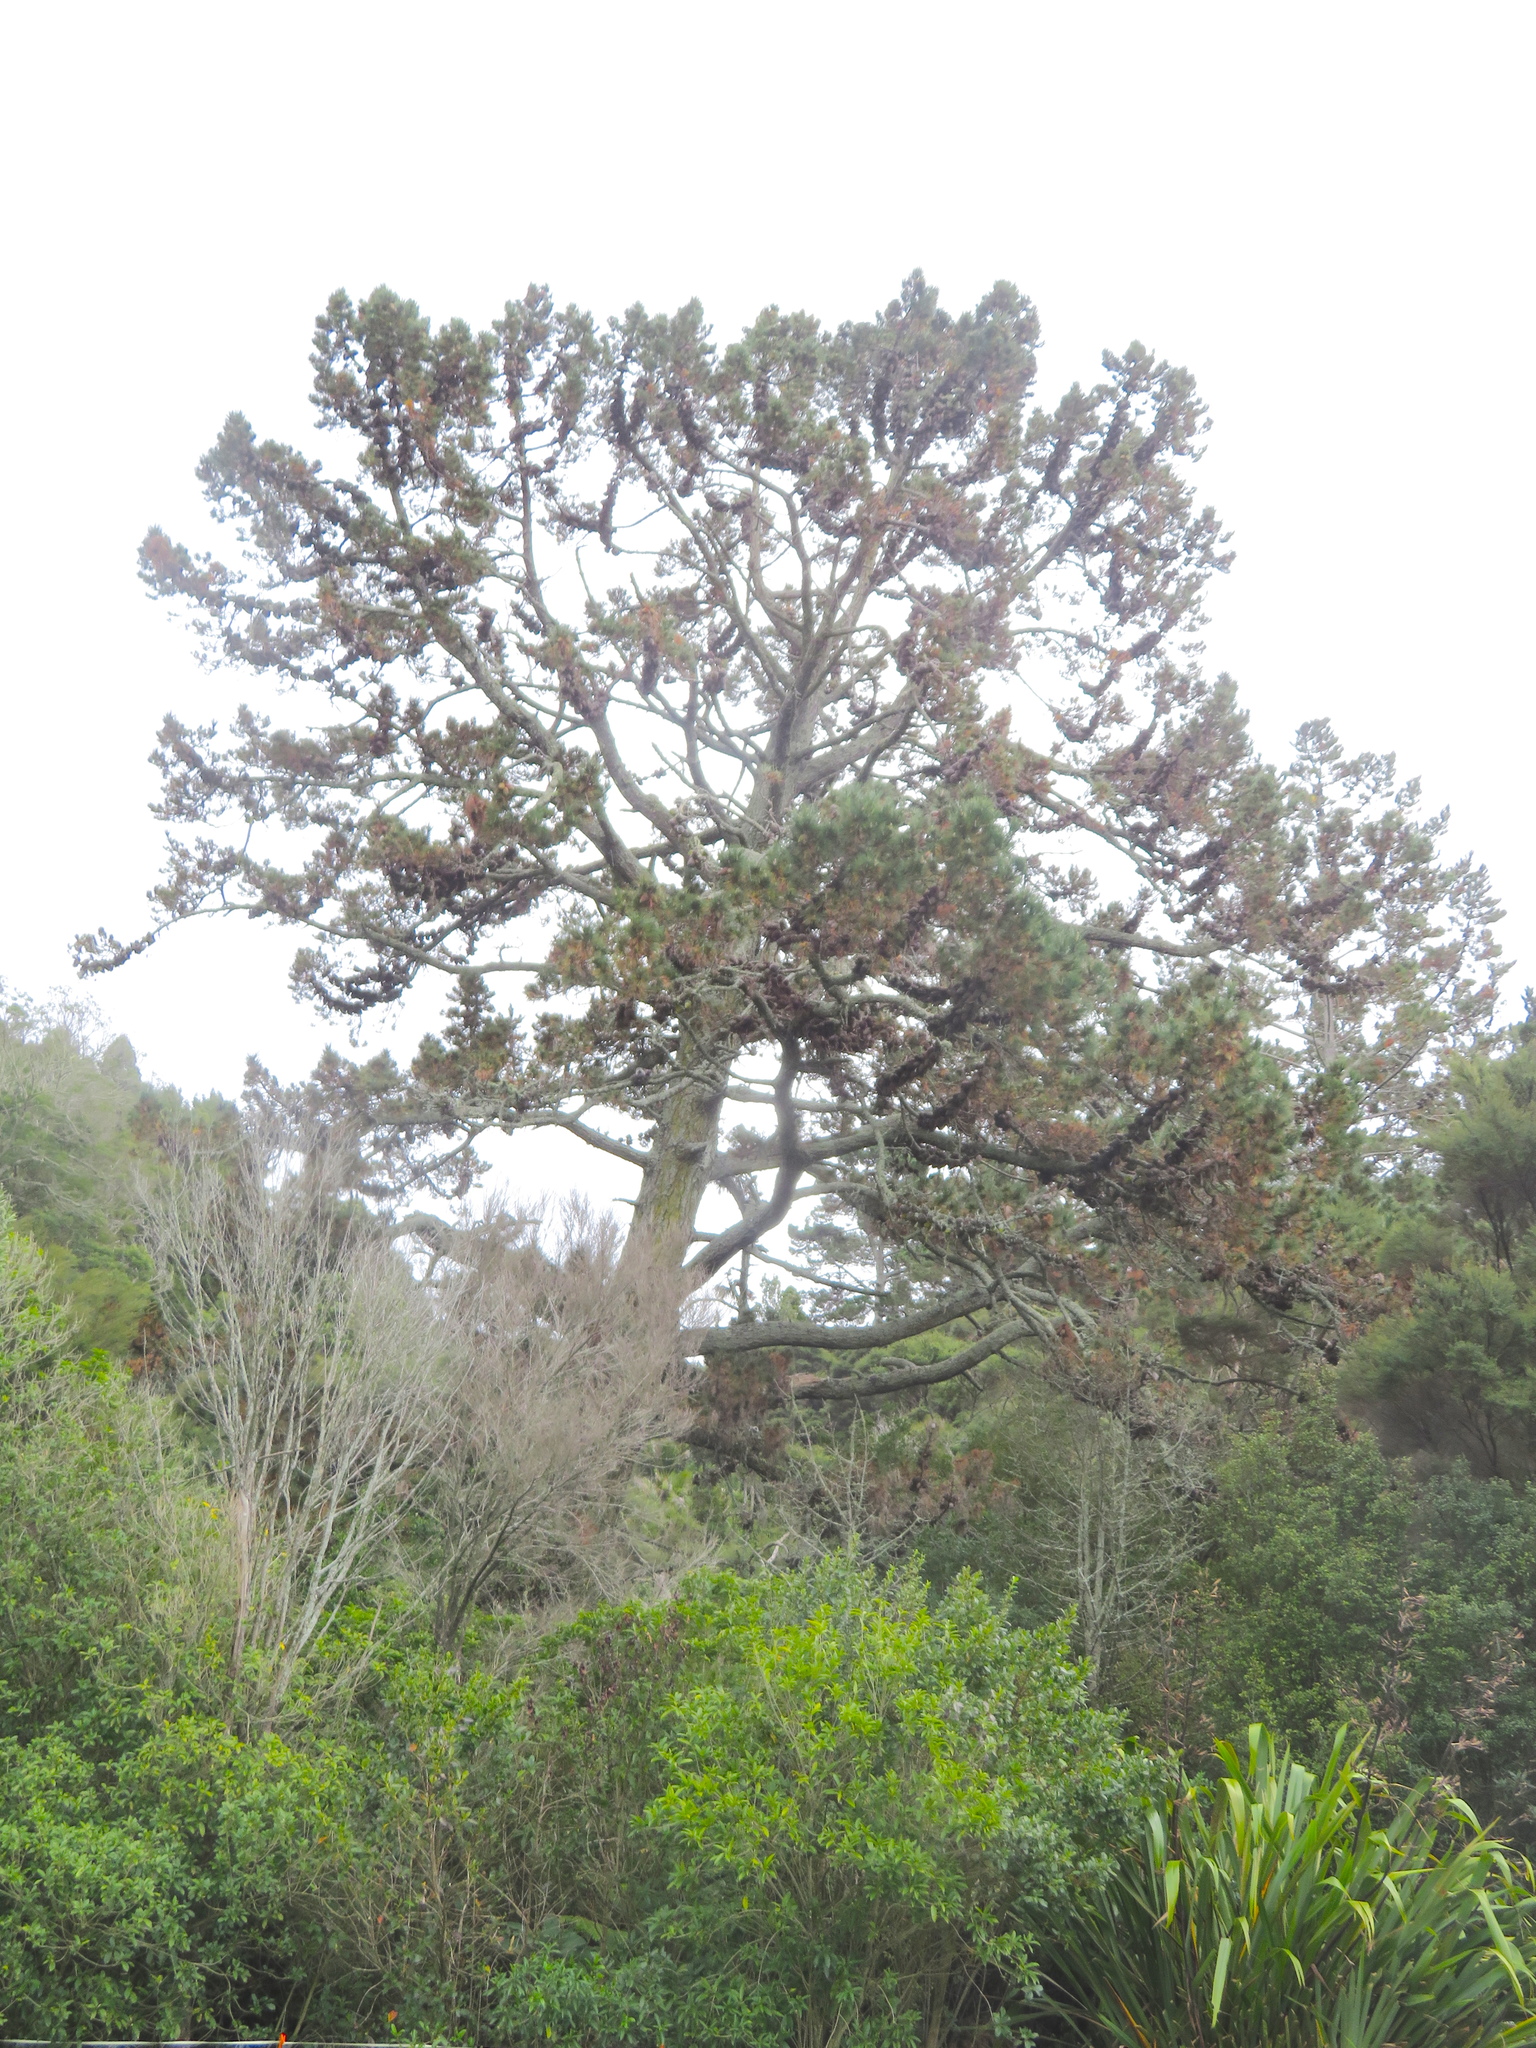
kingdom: Plantae
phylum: Tracheophyta
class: Pinopsida
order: Pinales
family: Pinaceae
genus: Pinus
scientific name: Pinus radiata
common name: Monterey pine
